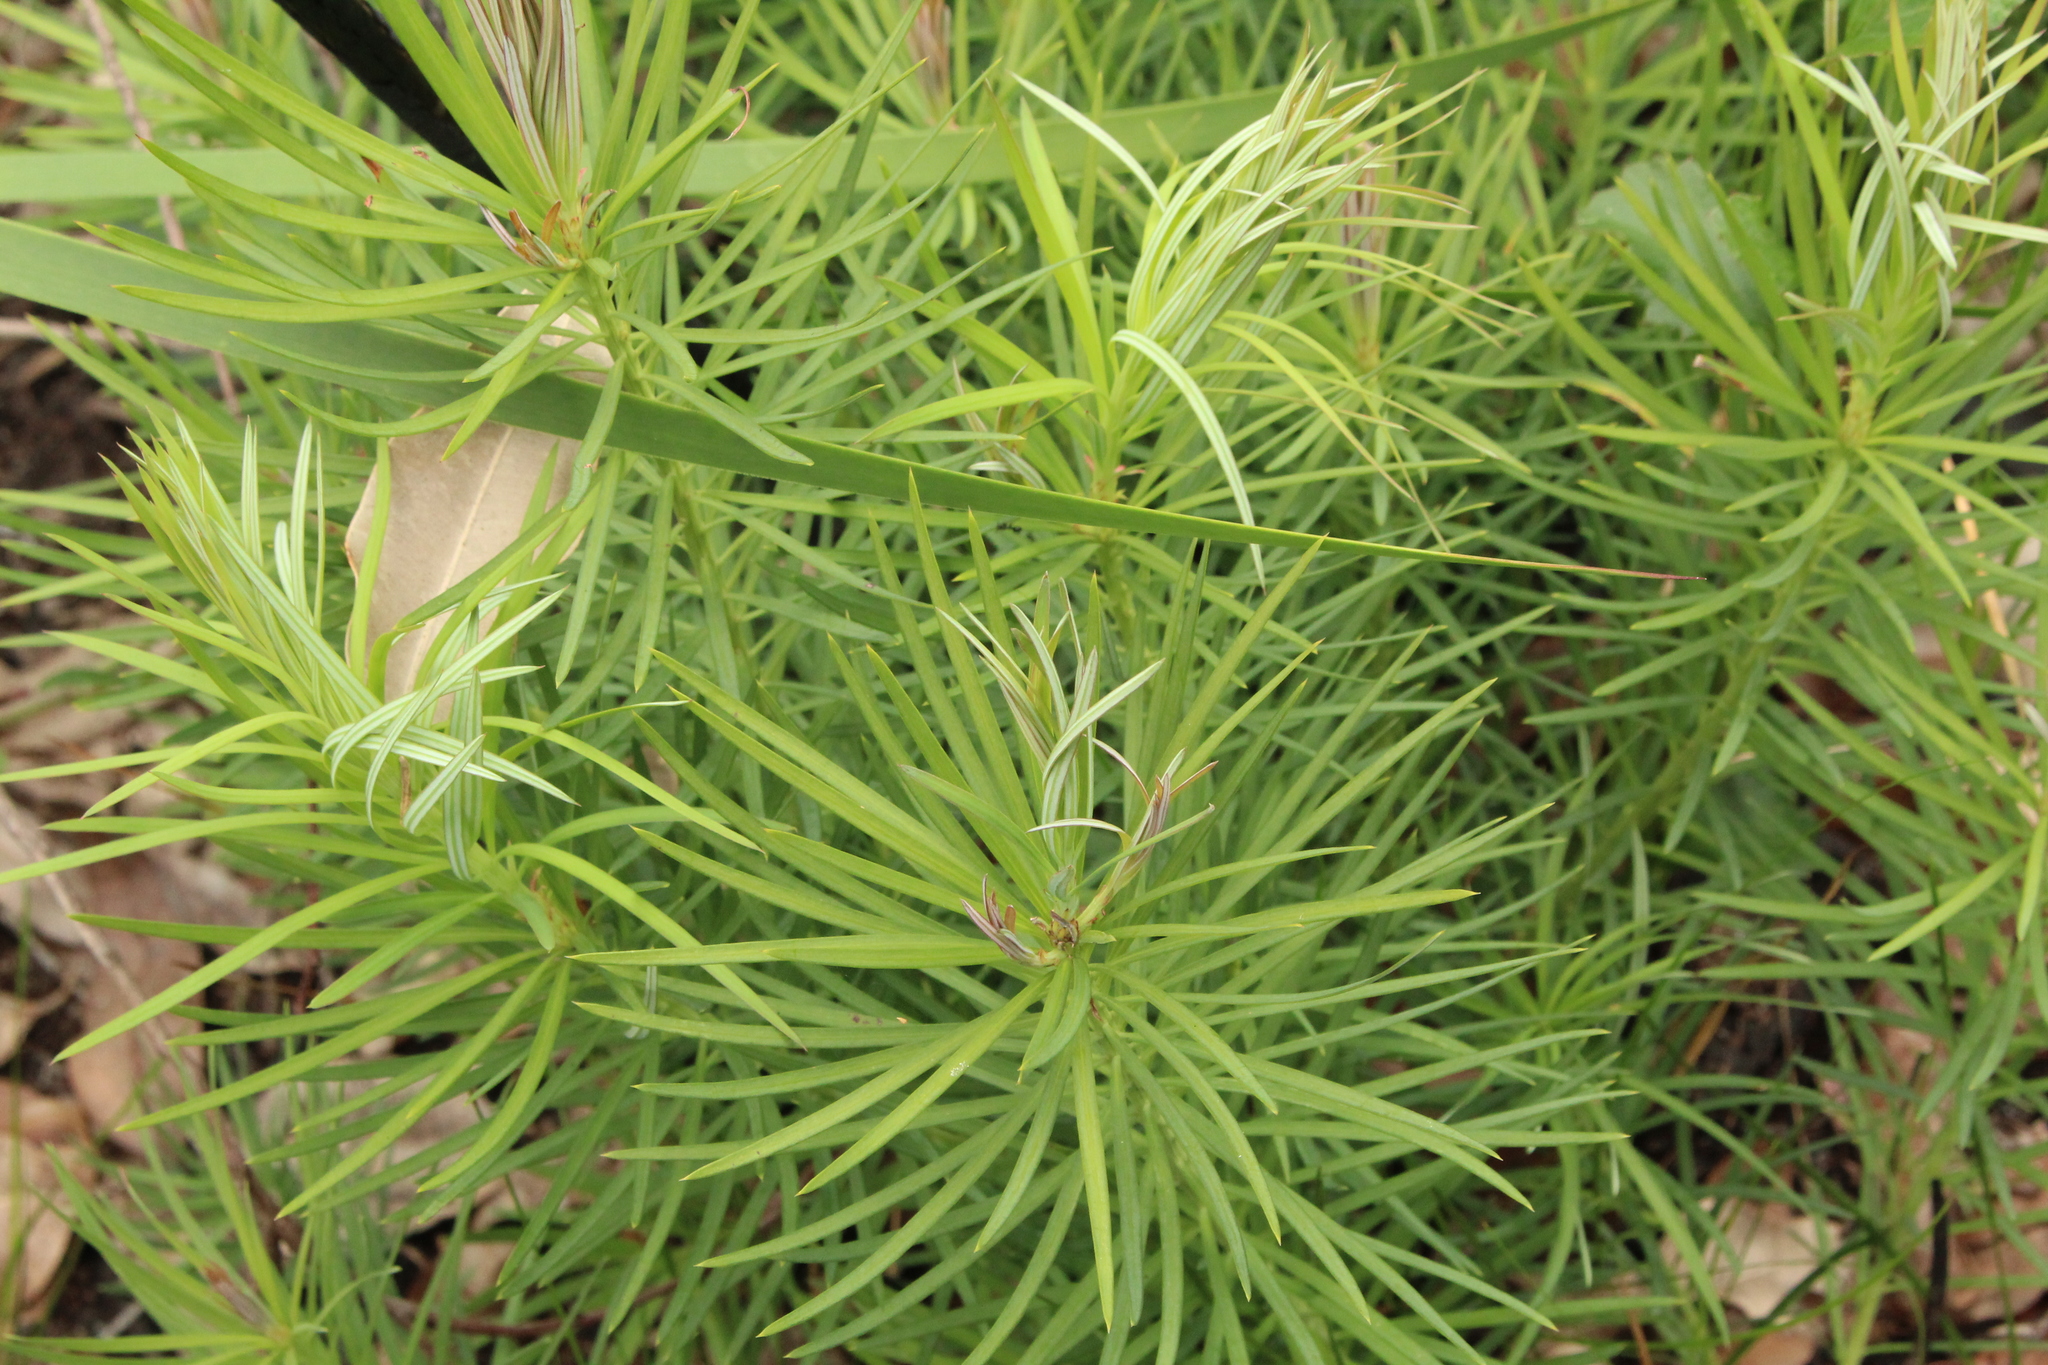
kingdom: Plantae
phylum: Tracheophyta
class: Pinopsida
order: Pinales
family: Podocarpaceae
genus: Podocarpus
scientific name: Podocarpus drouynianus
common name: Emu berry
